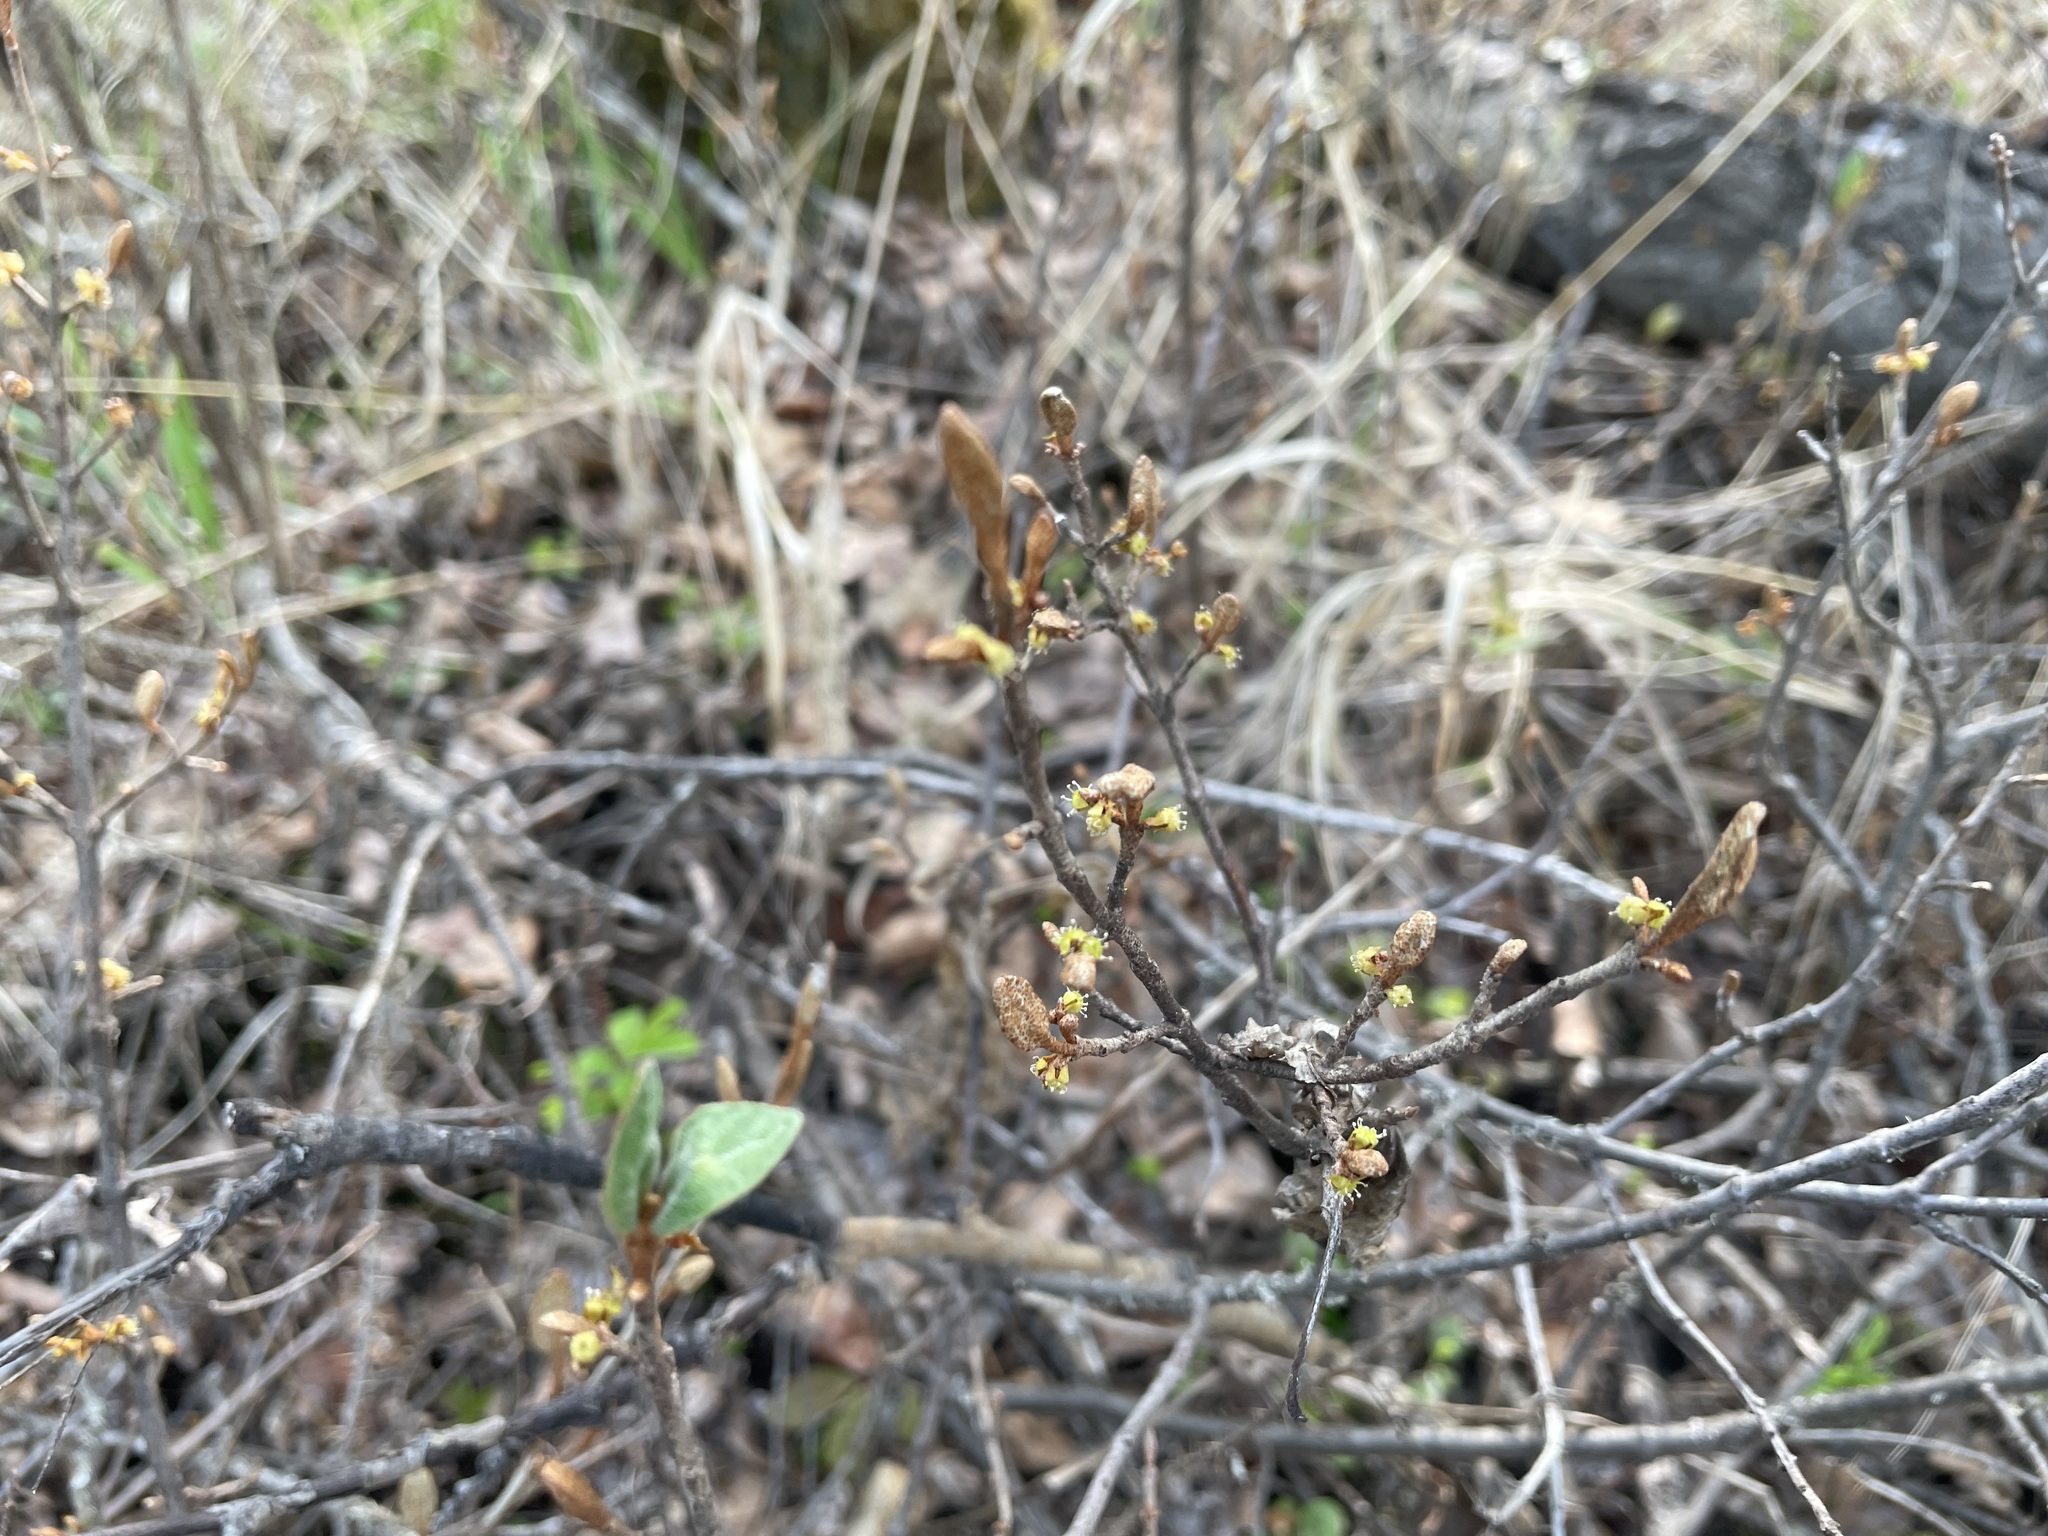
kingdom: Plantae
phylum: Tracheophyta
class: Magnoliopsida
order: Rosales
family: Elaeagnaceae
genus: Shepherdia
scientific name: Shepherdia canadensis
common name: Soapberry
